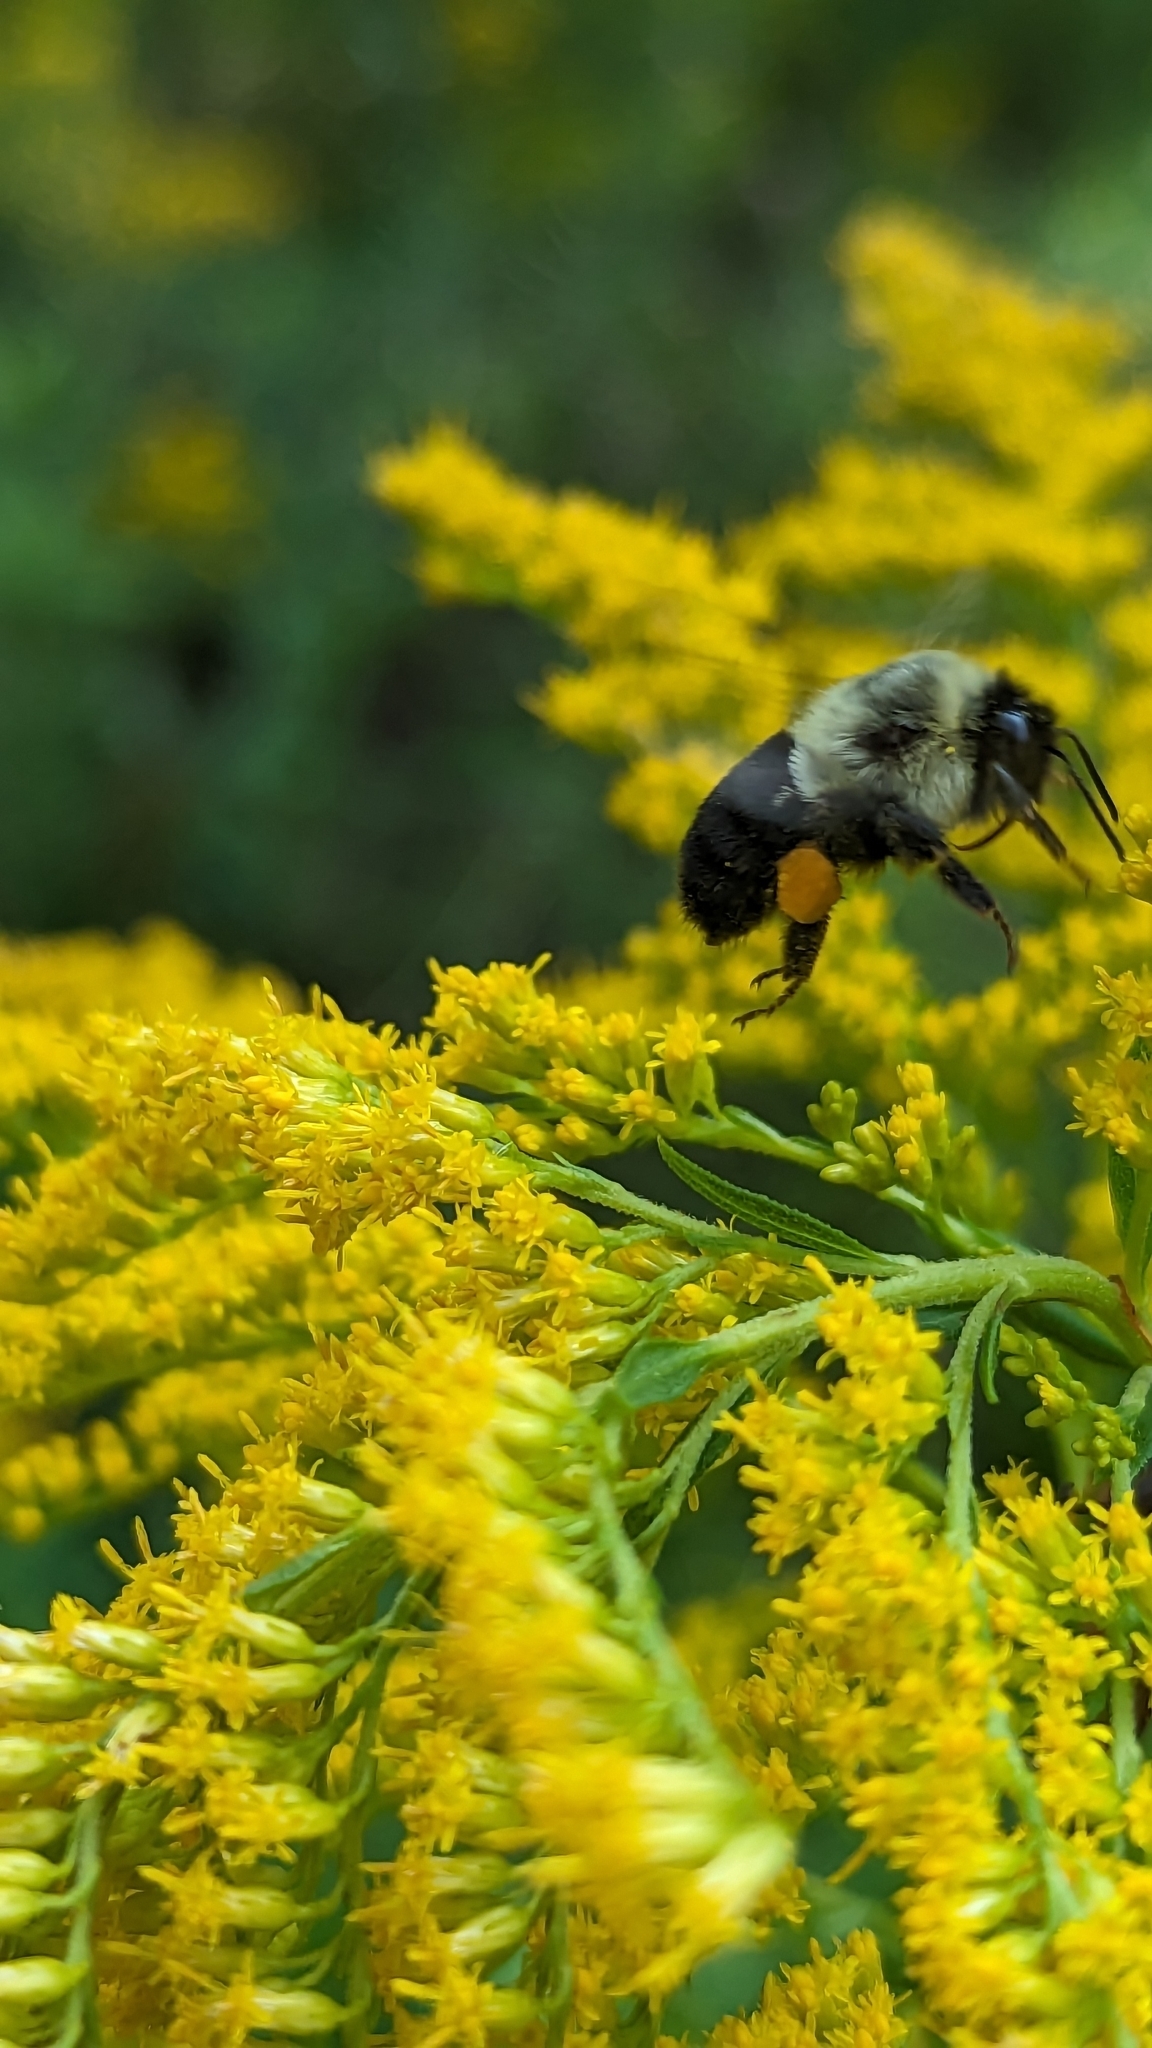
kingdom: Animalia
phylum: Arthropoda
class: Insecta
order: Hymenoptera
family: Apidae
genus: Bombus
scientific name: Bombus impatiens
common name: Common eastern bumble bee
